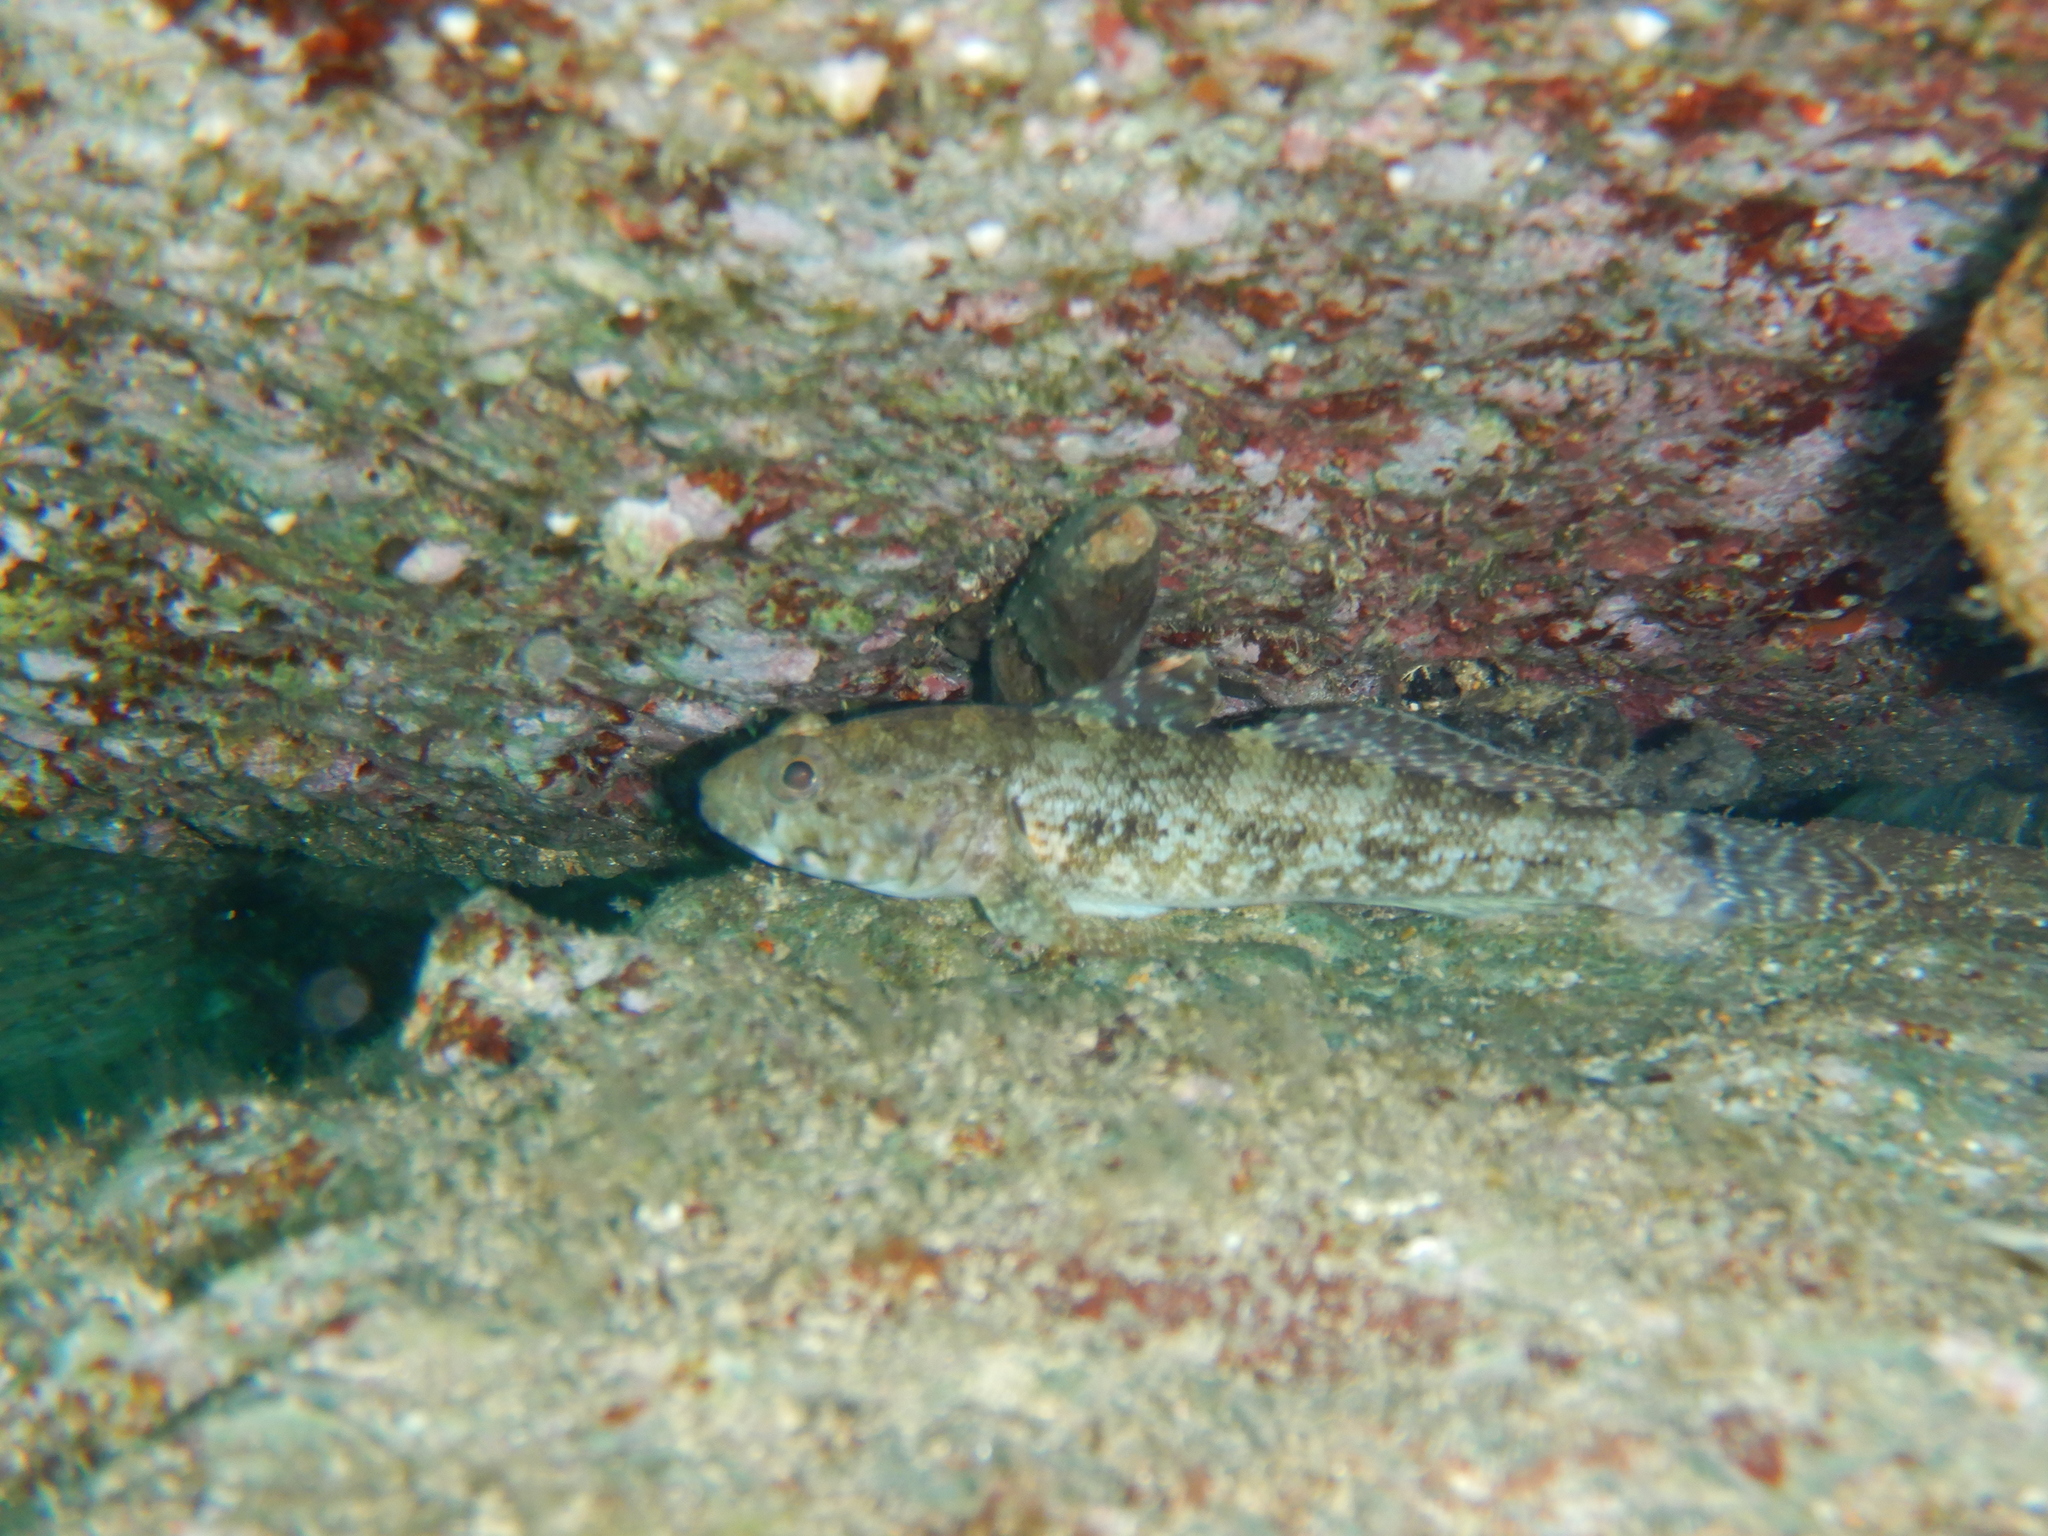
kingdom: Animalia
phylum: Chordata
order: Perciformes
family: Gobiidae
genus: Gobius
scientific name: Gobius paganellus
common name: Rock goby
